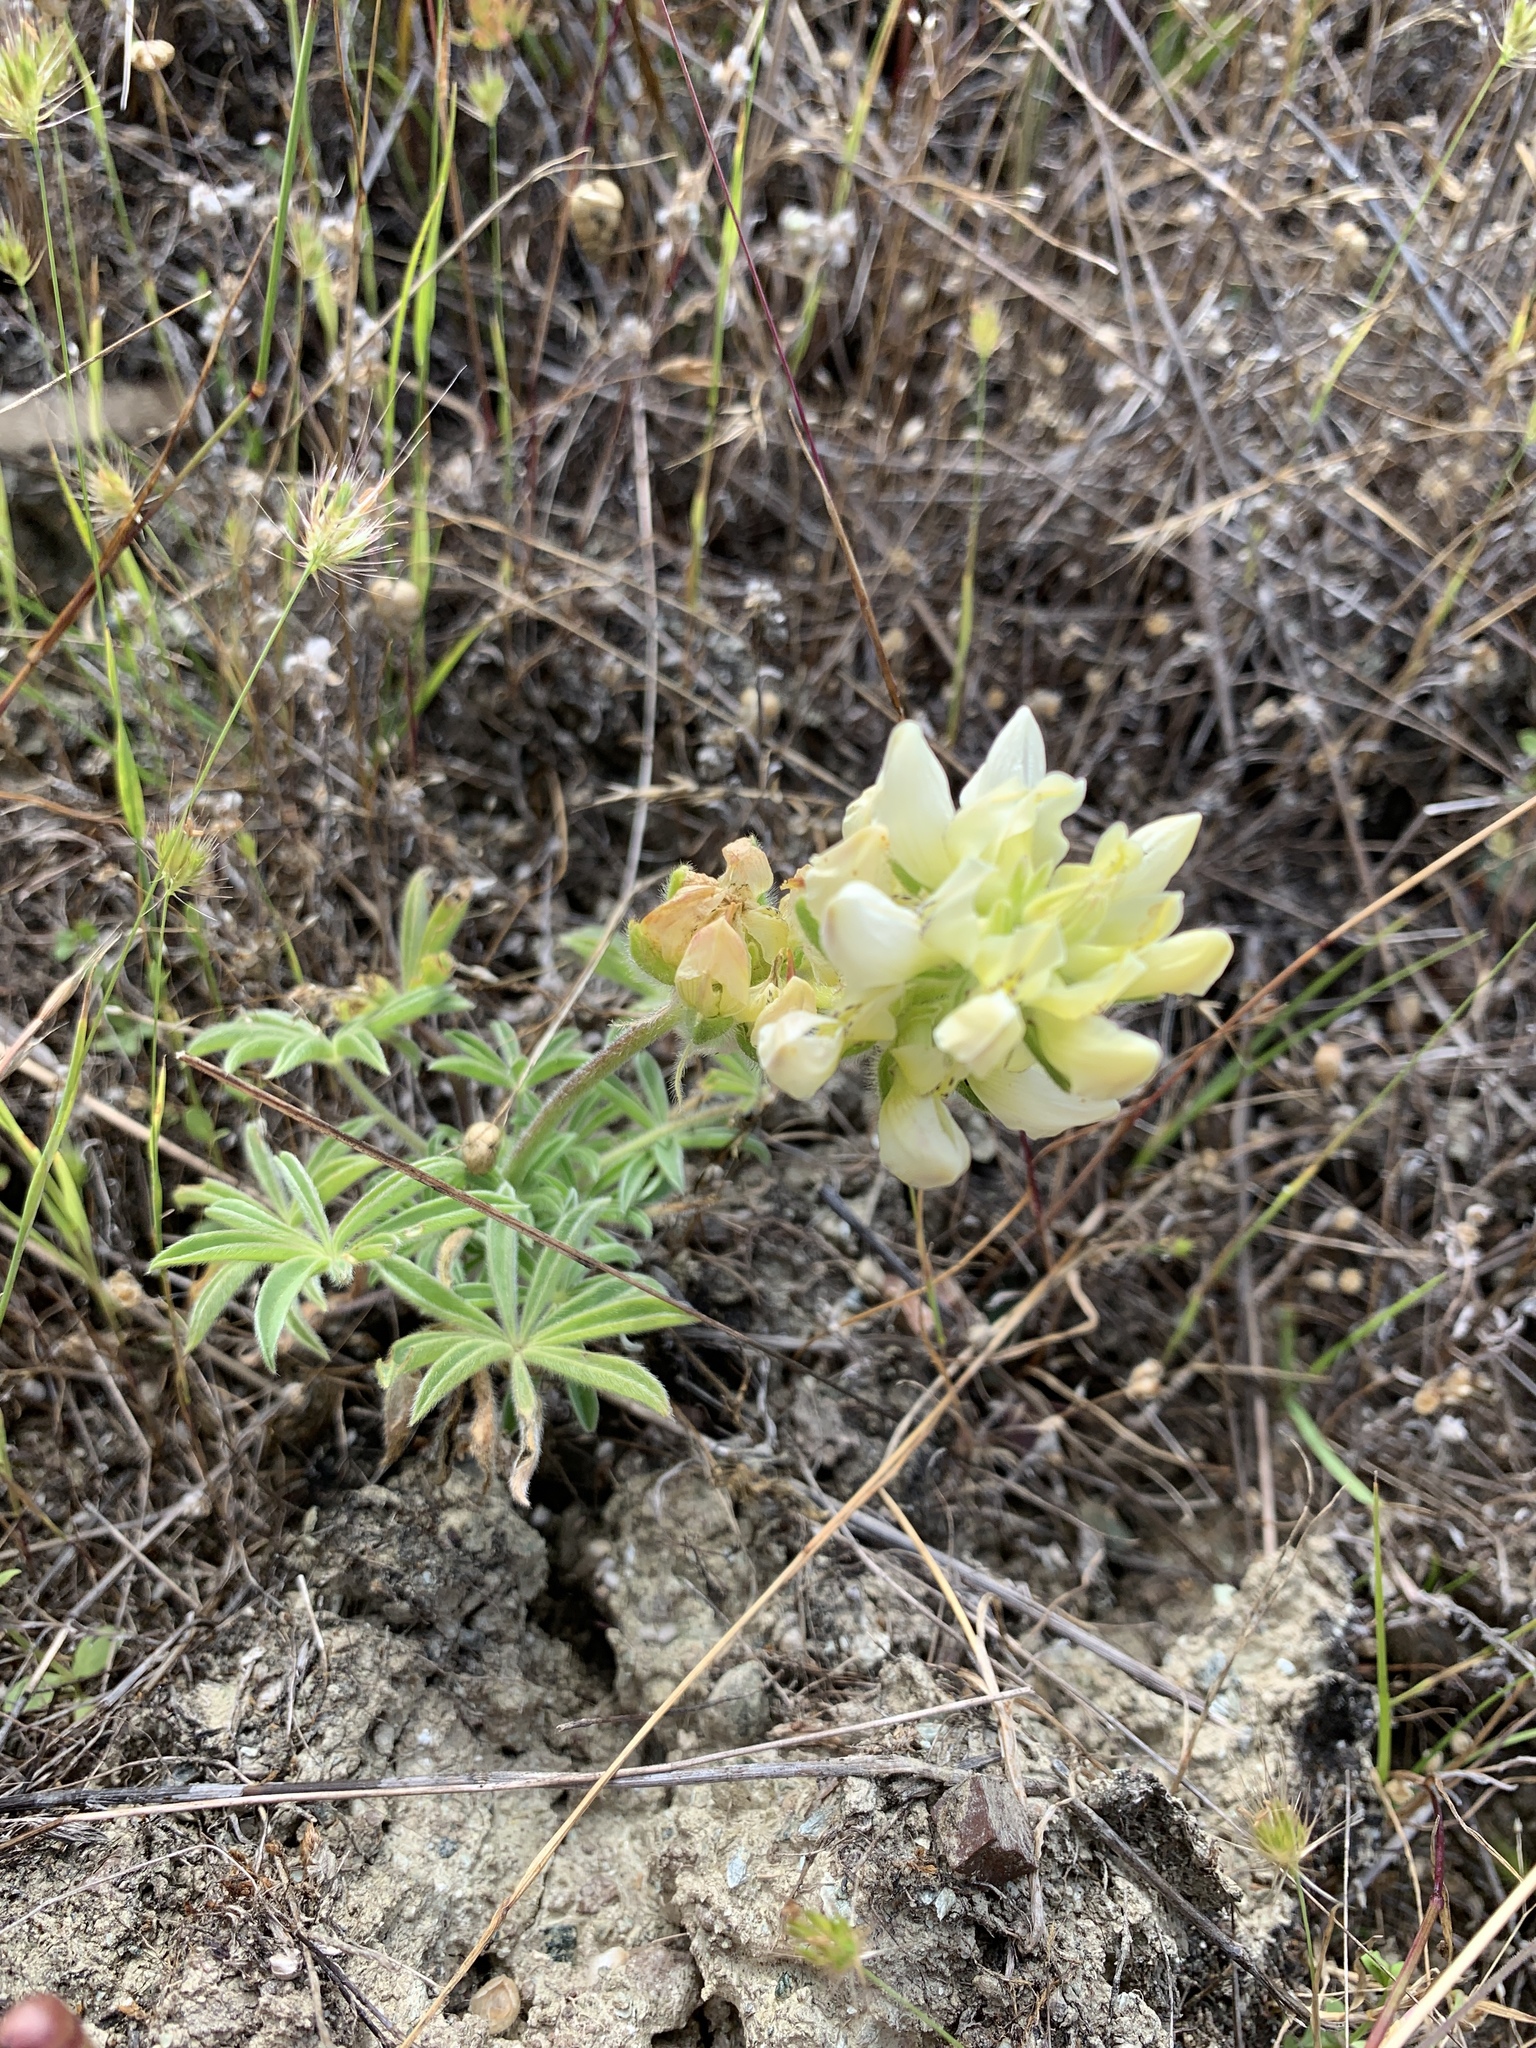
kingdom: Plantae
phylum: Tracheophyta
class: Magnoliopsida
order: Fabales
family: Fabaceae
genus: Lupinus
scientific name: Lupinus microcarpus
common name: Chick lupine
